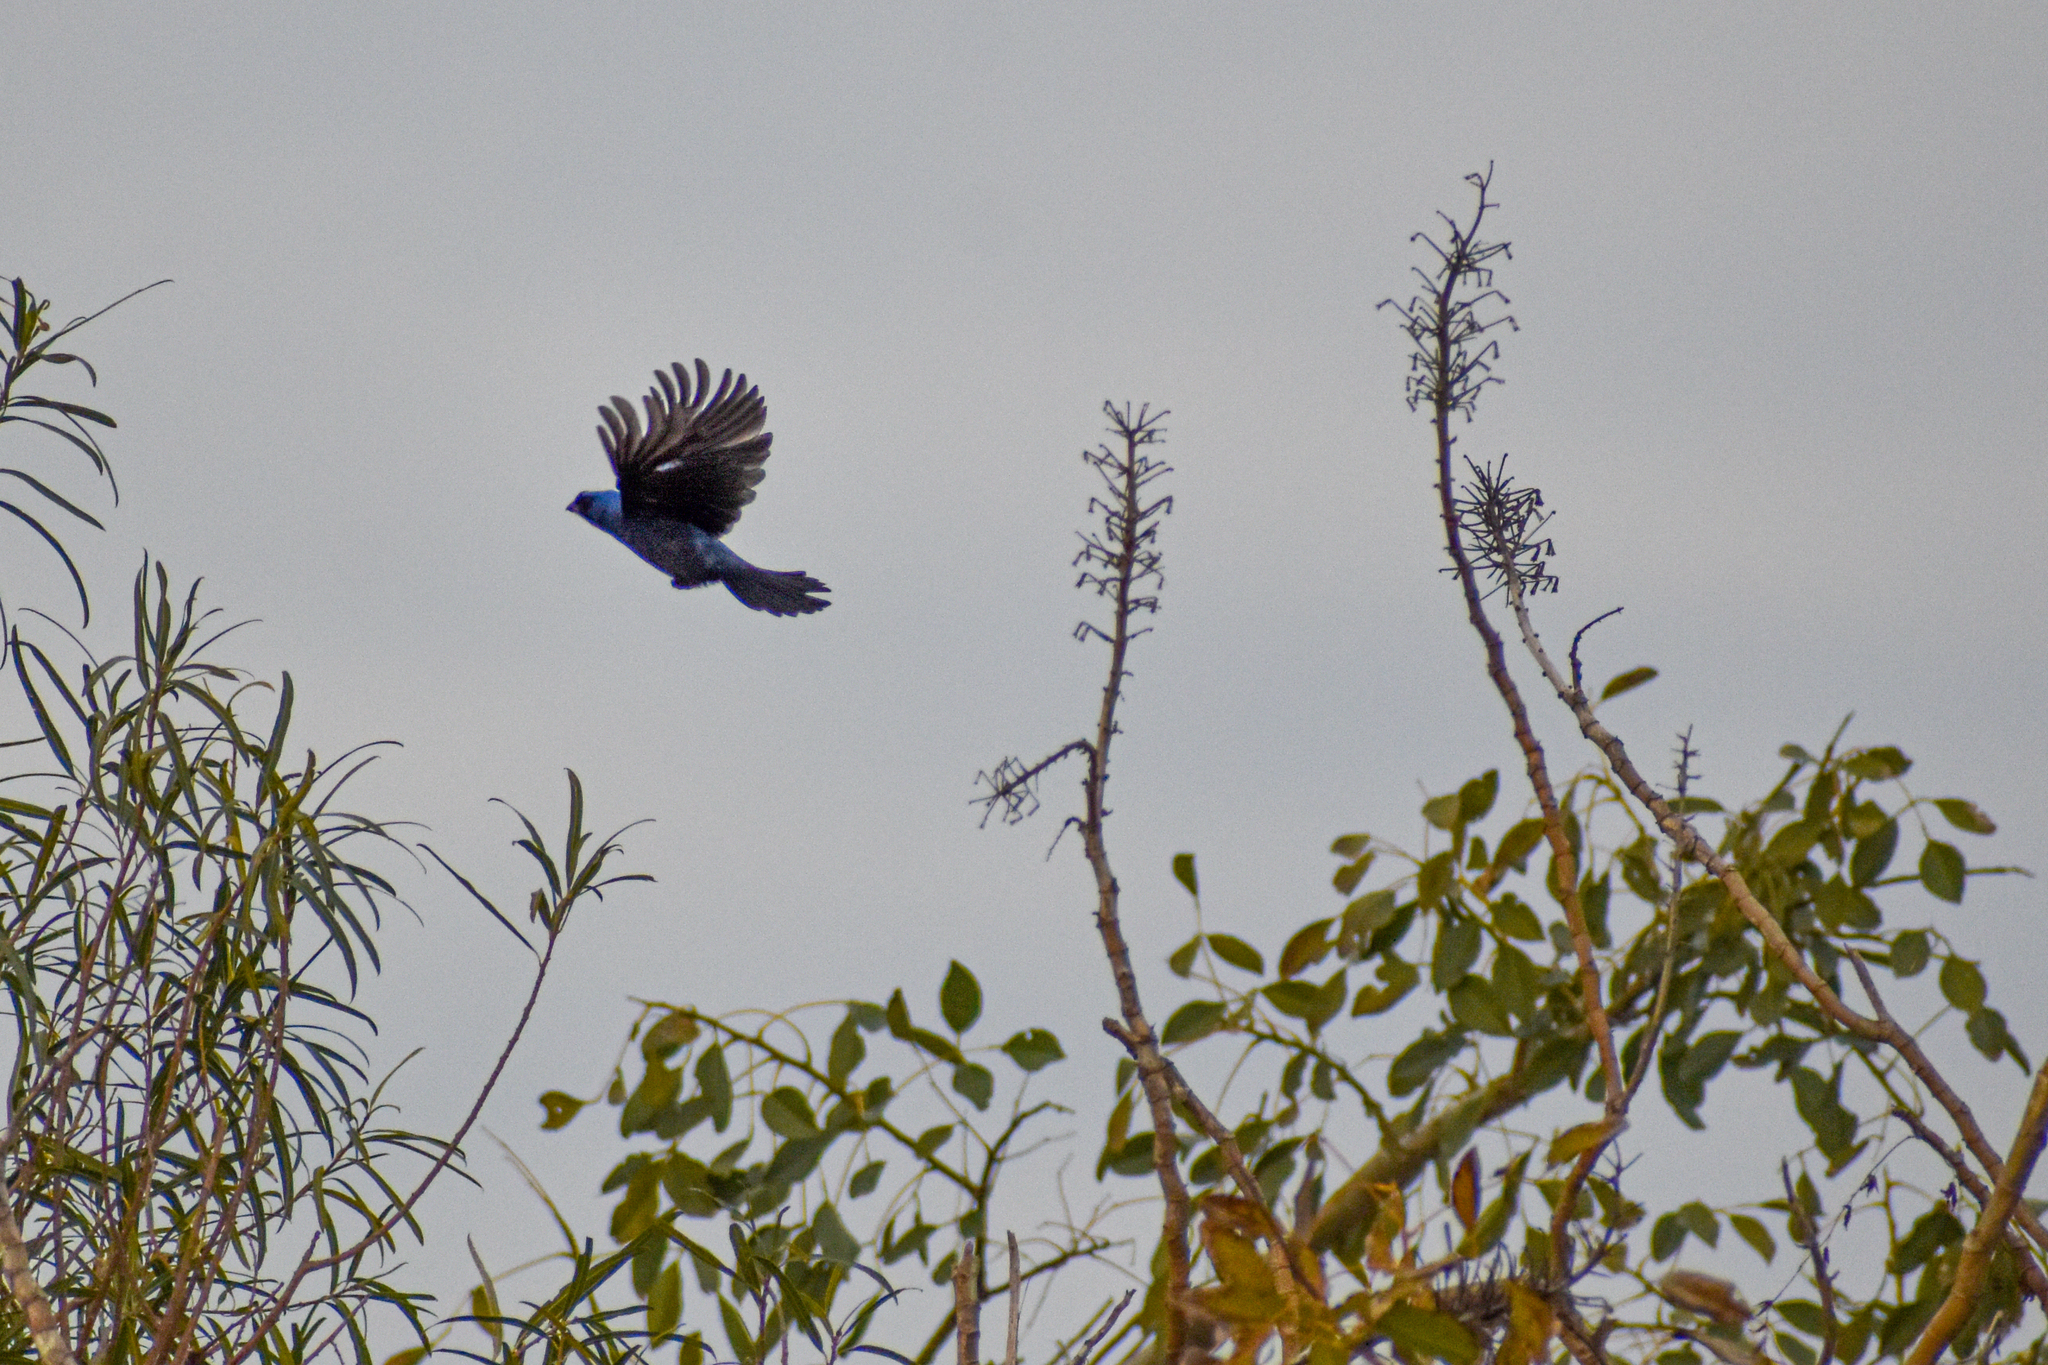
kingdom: Animalia
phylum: Chordata
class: Aves
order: Passeriformes
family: Thraupidae
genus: Stephanophorus
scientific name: Stephanophorus diadematus
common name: Diademed tanager
